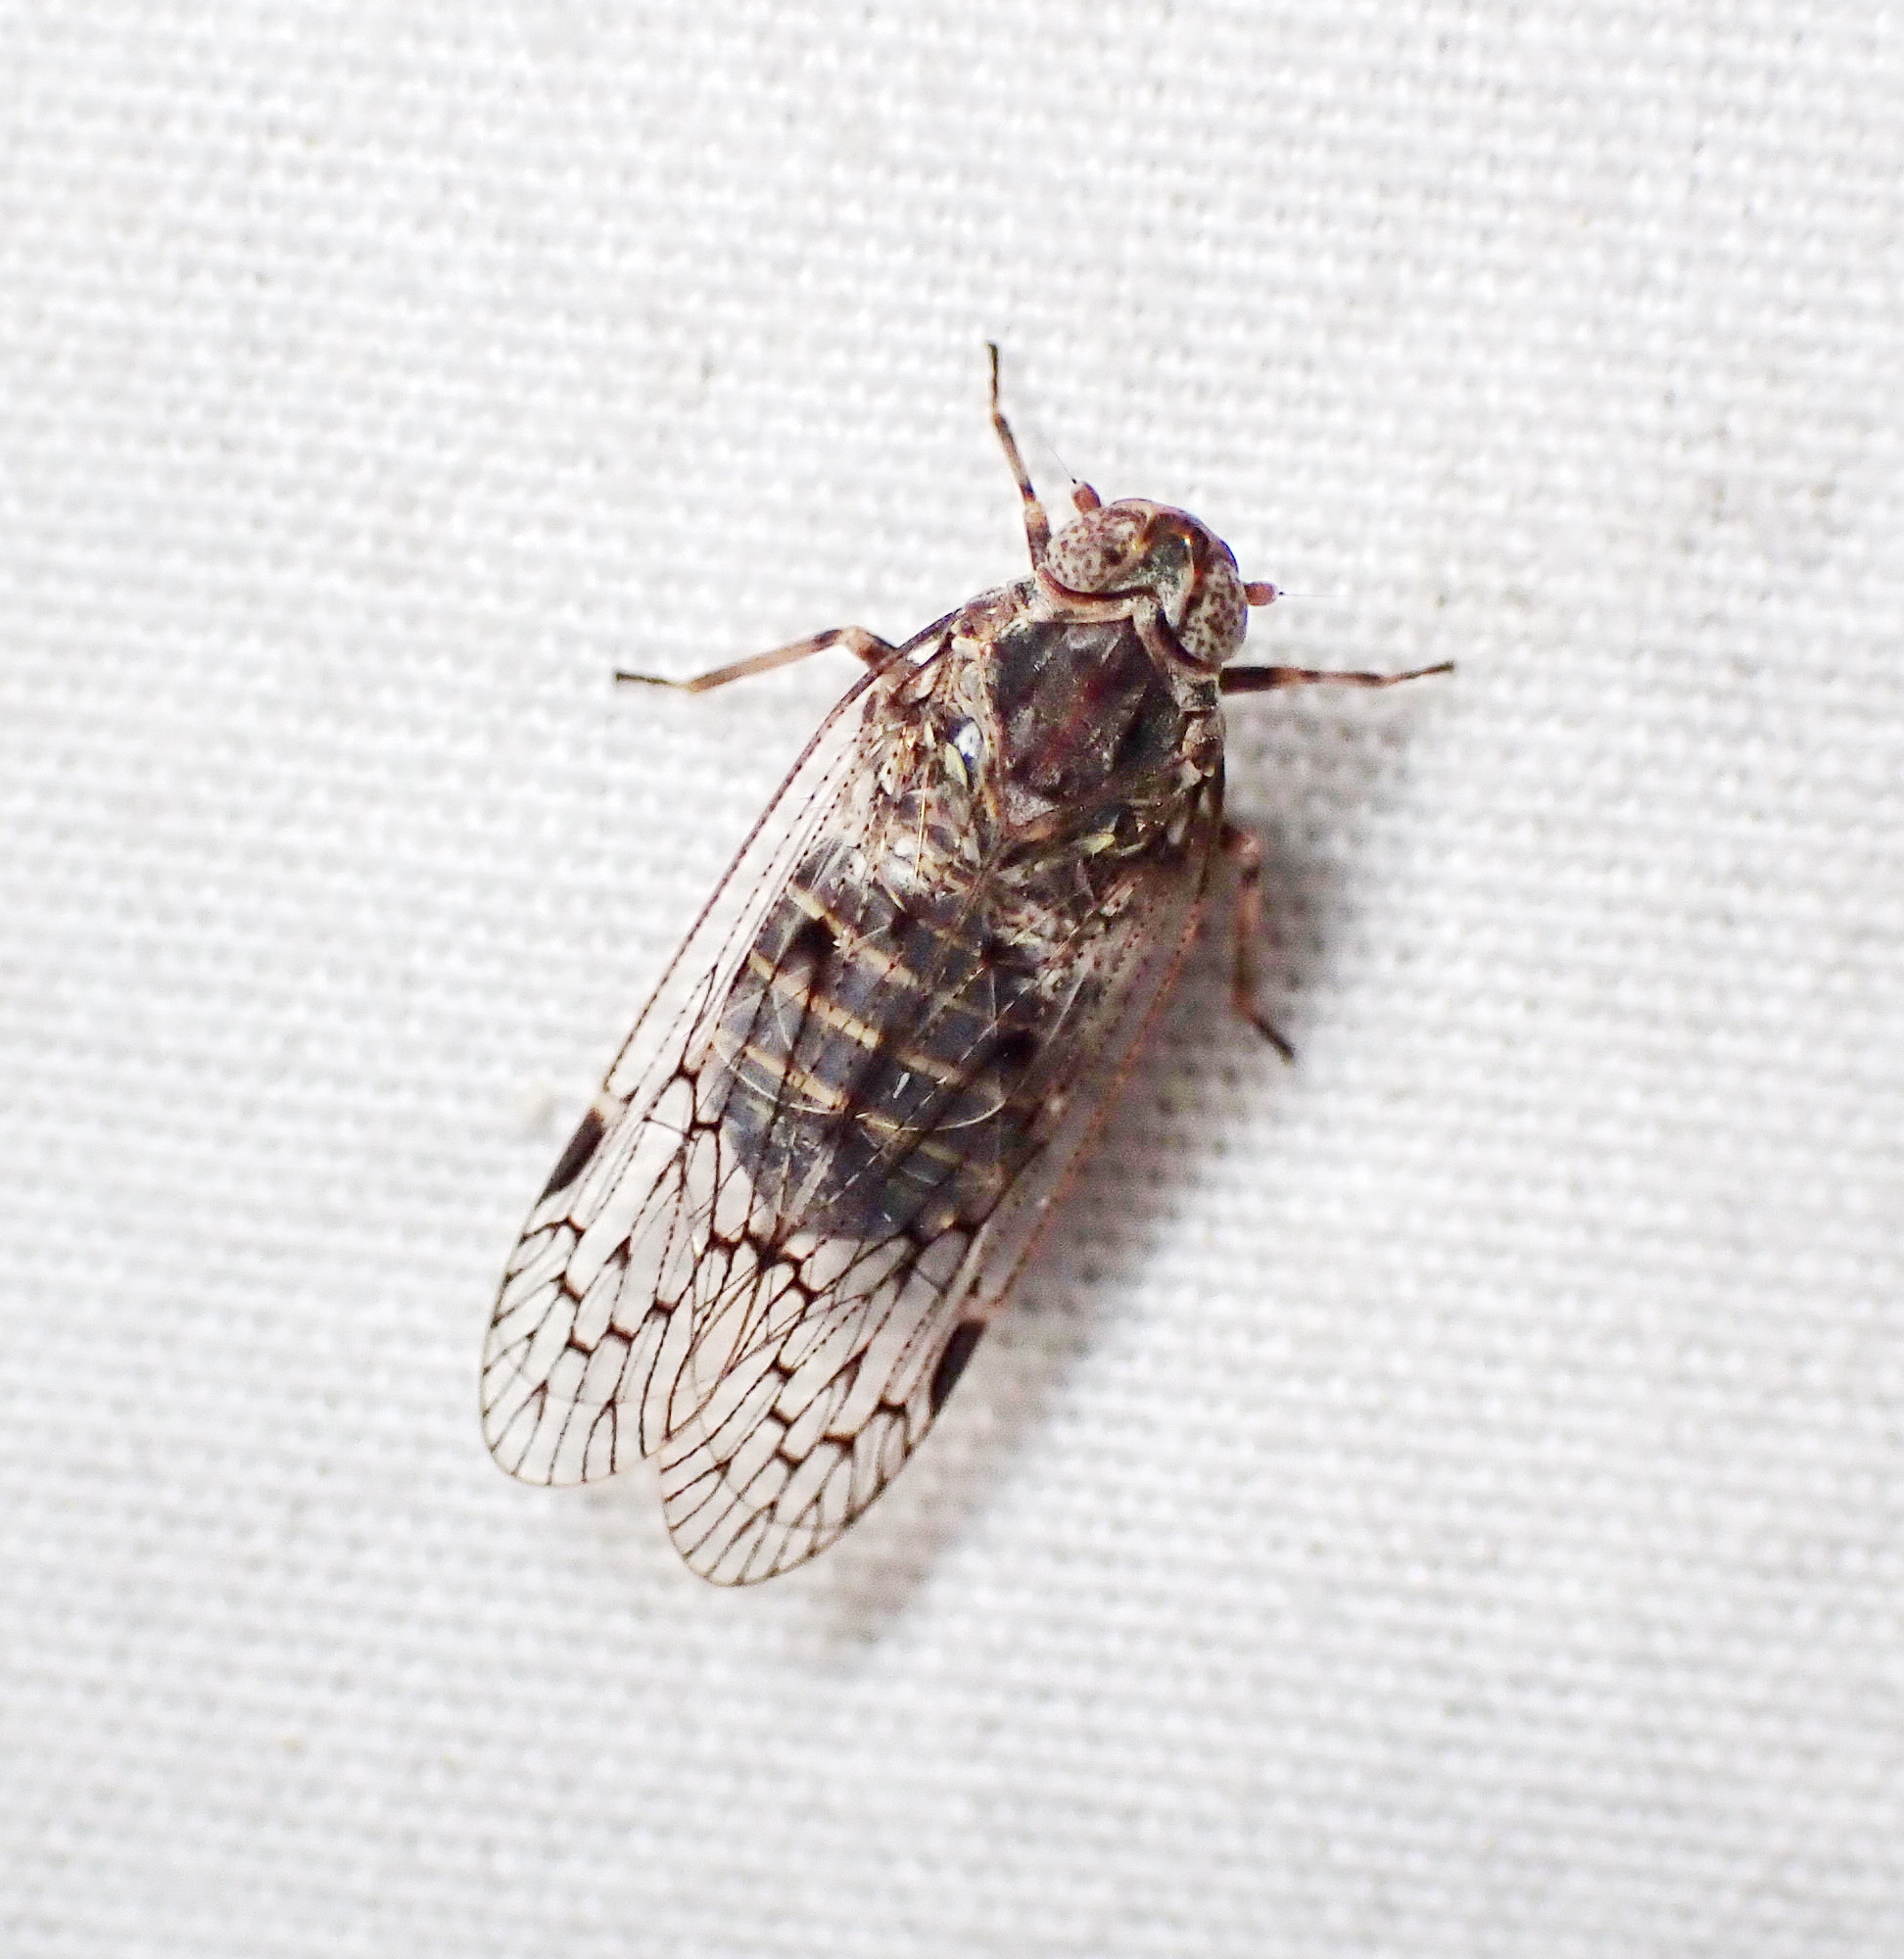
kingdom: Animalia
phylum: Arthropoda
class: Insecta
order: Hemiptera
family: Cixiidae
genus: Melanoliarus
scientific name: Melanoliarus aridus
